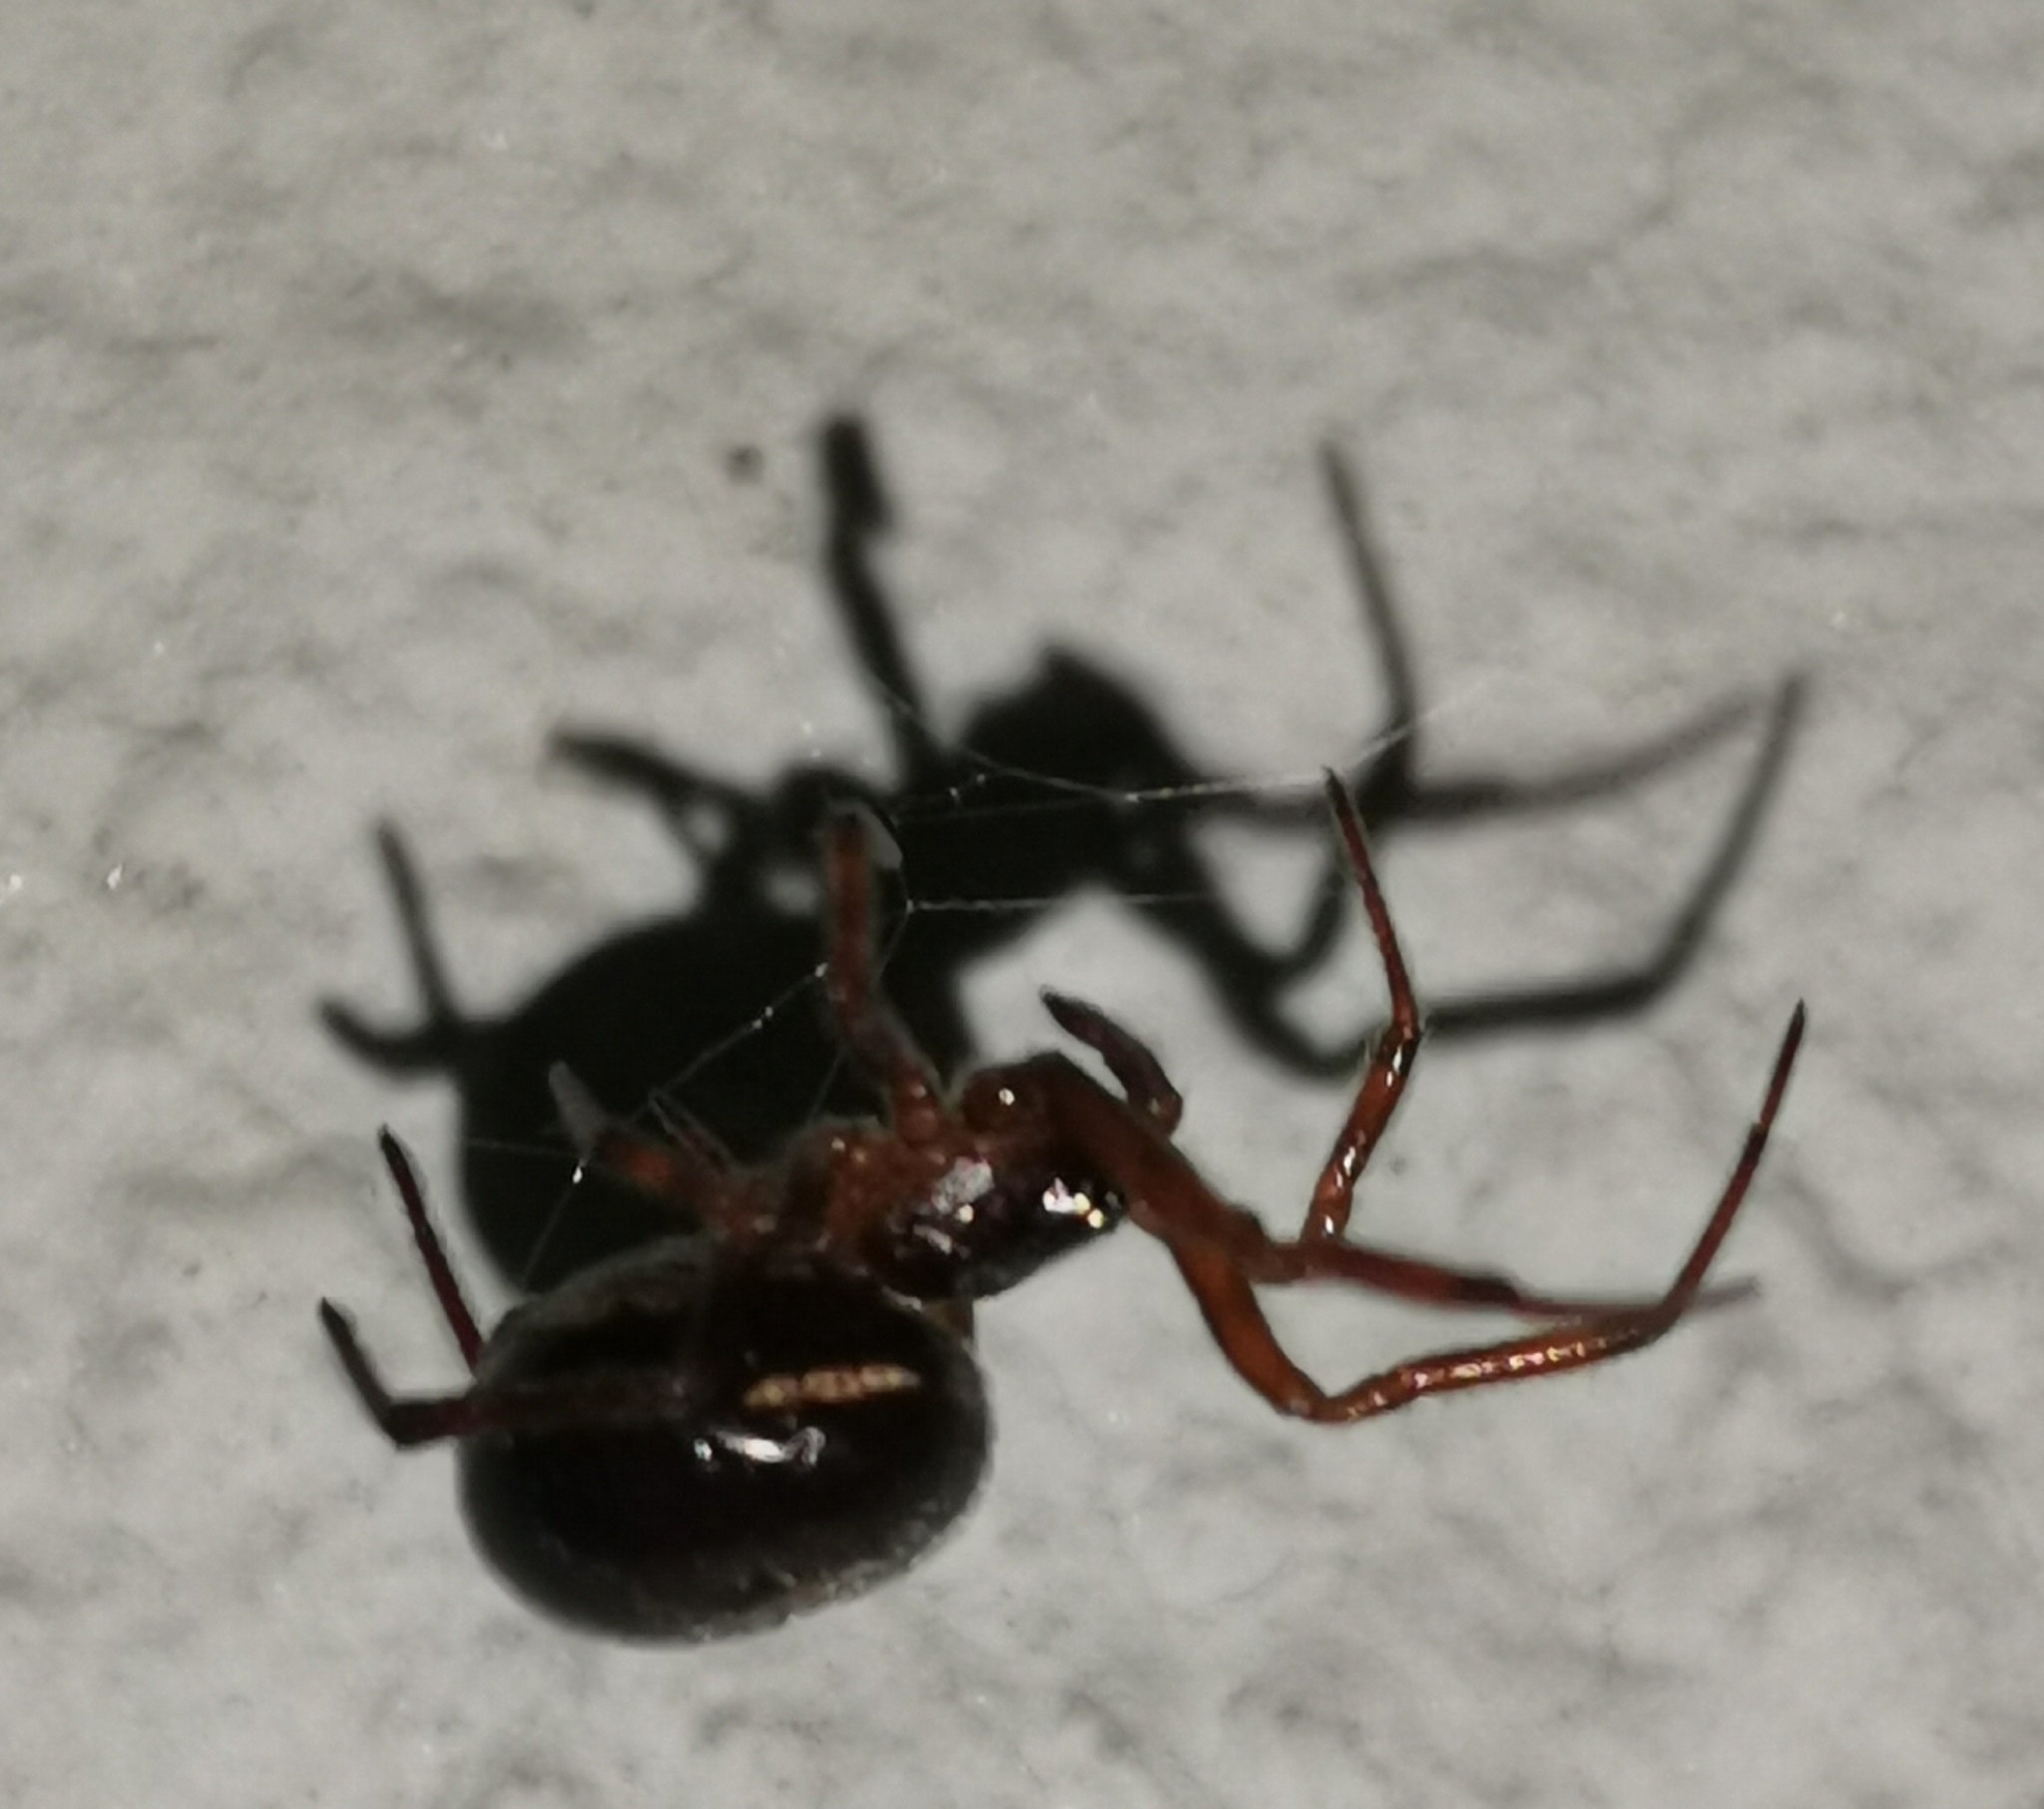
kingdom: Animalia
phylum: Arthropoda
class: Arachnida
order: Araneae
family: Theridiidae
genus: Steatoda
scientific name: Steatoda bipunctata
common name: False widow
